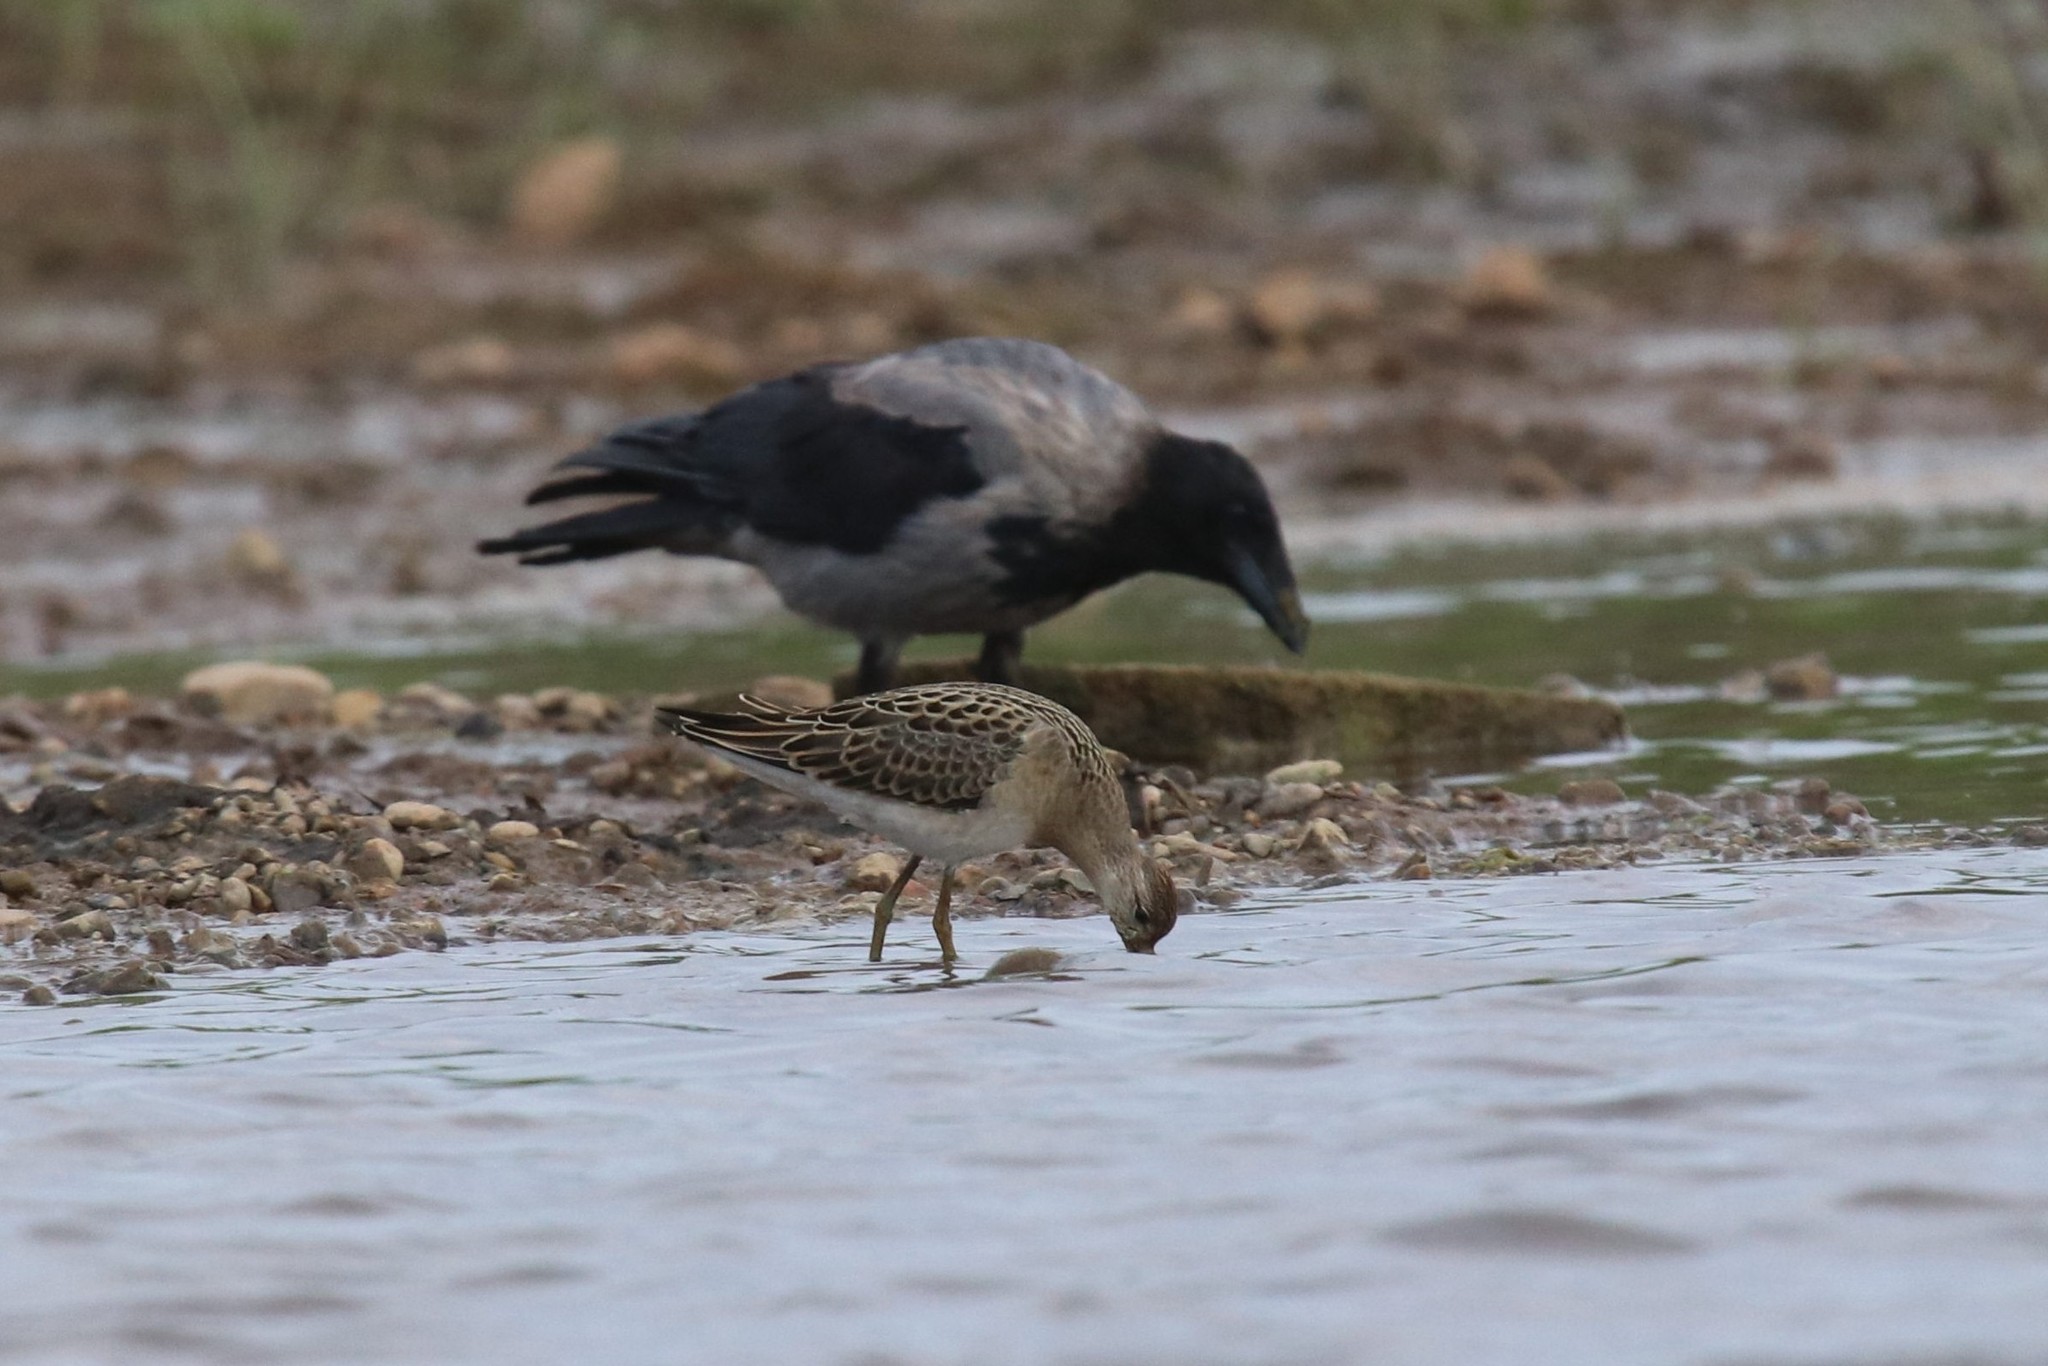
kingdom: Animalia
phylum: Chordata
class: Aves
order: Charadriiformes
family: Scolopacidae
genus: Calidris
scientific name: Calidris pugnax
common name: Ruff
